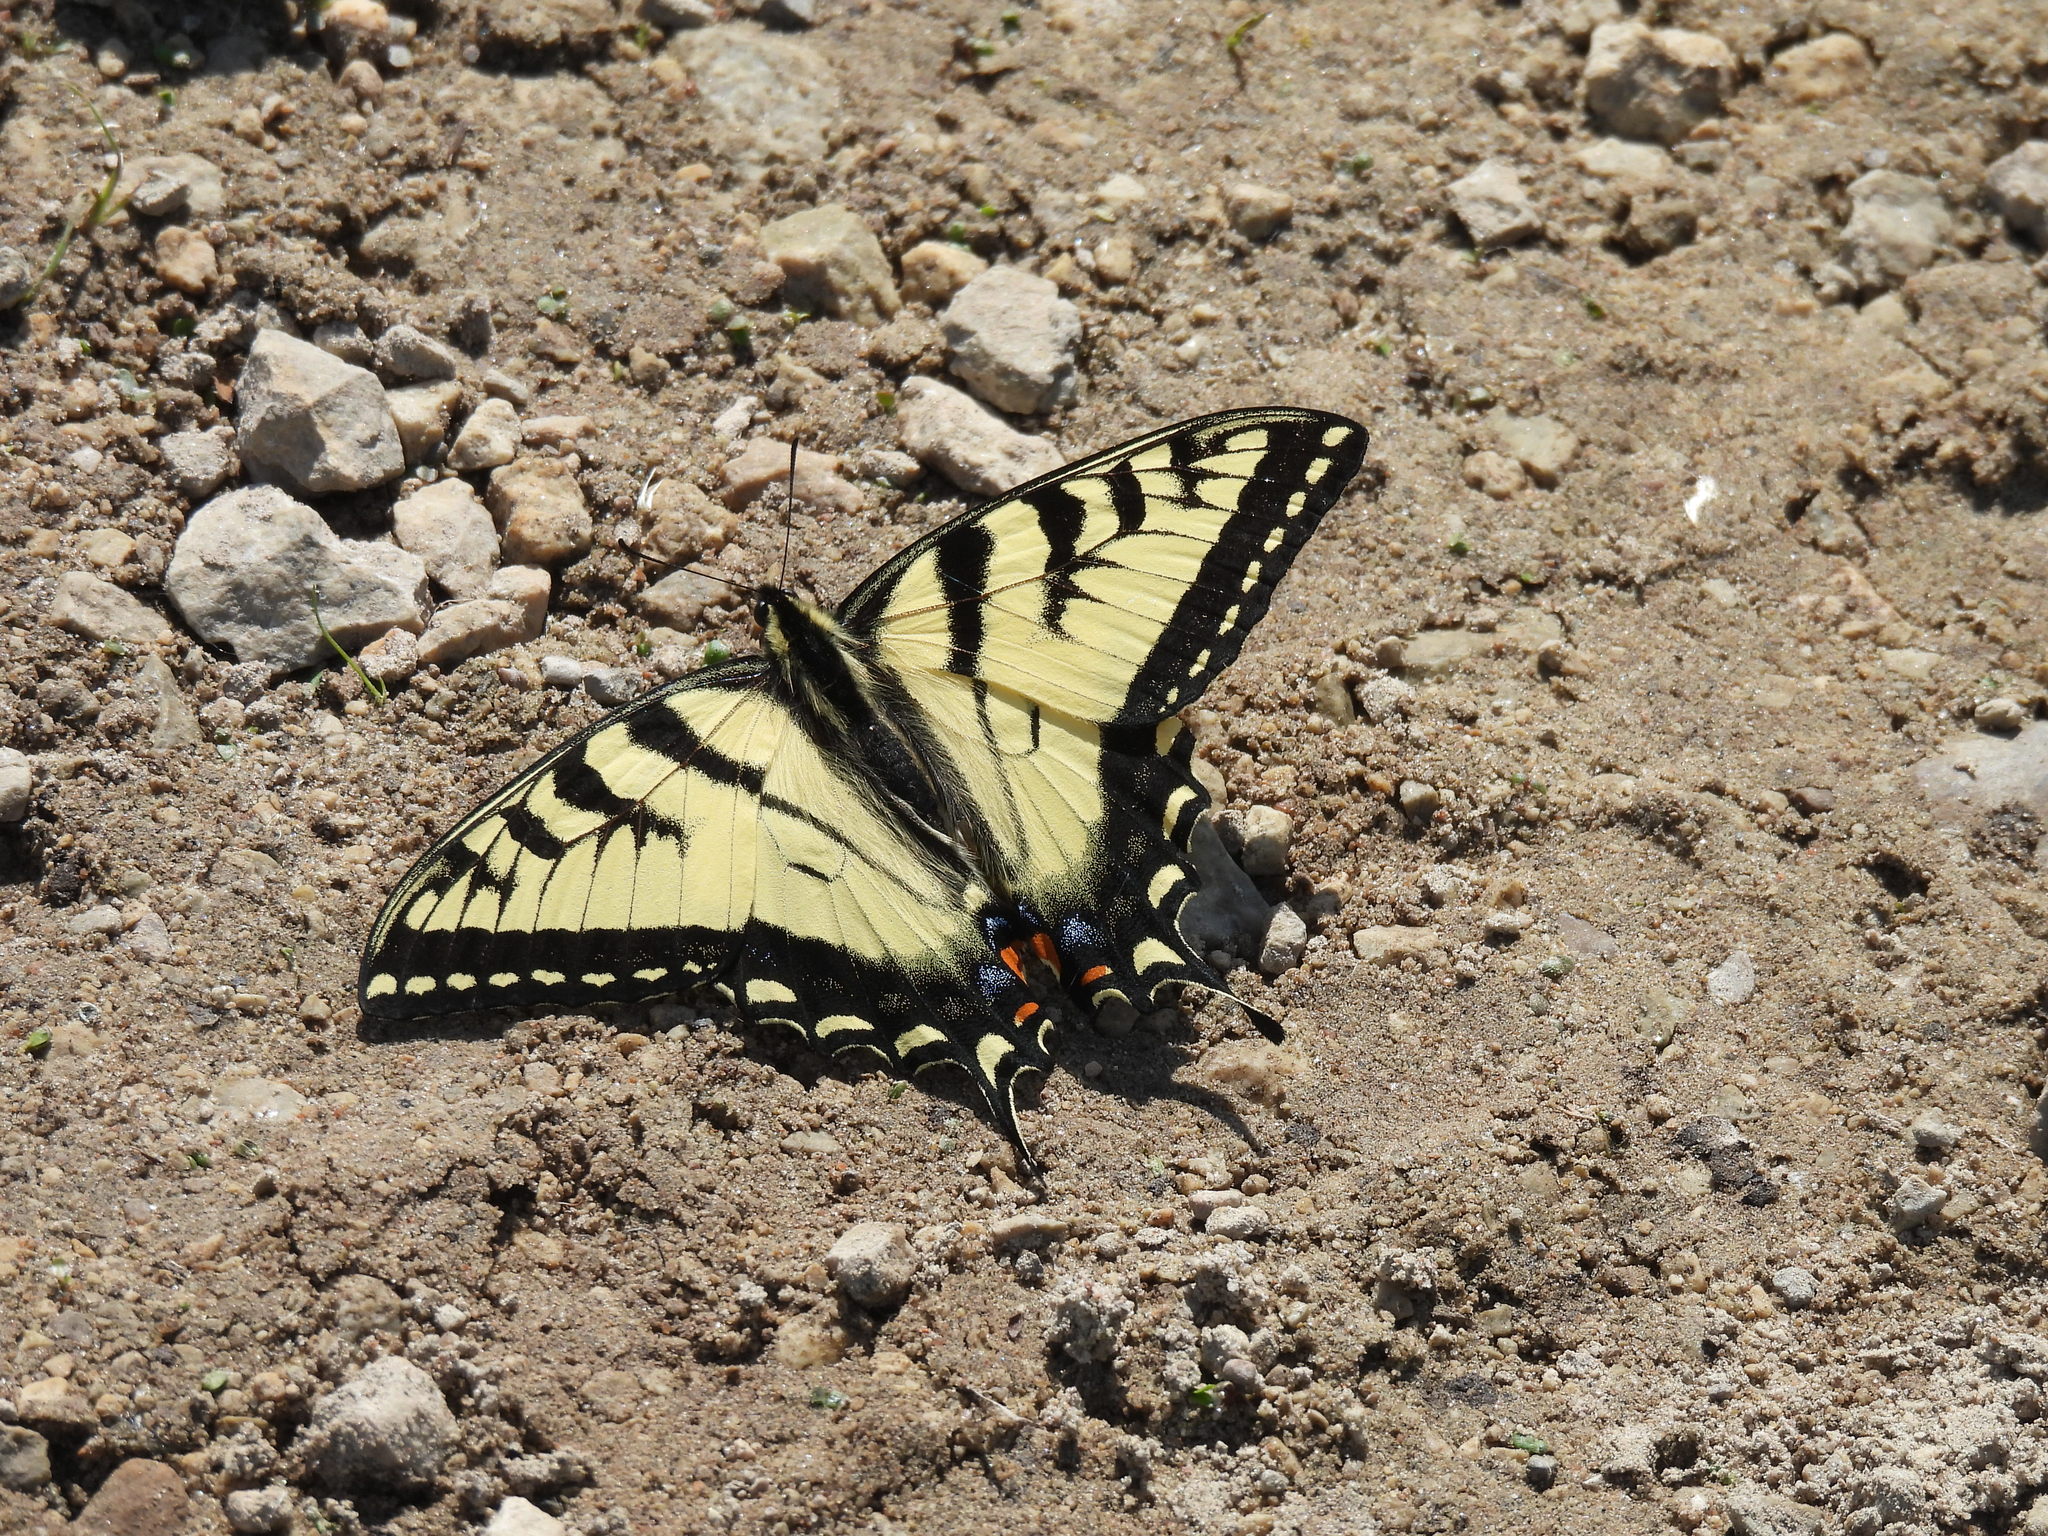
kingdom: Animalia
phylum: Arthropoda
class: Insecta
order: Lepidoptera
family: Papilionidae
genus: Papilio
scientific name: Papilio canadensis
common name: Canadian tiger swallowtail
